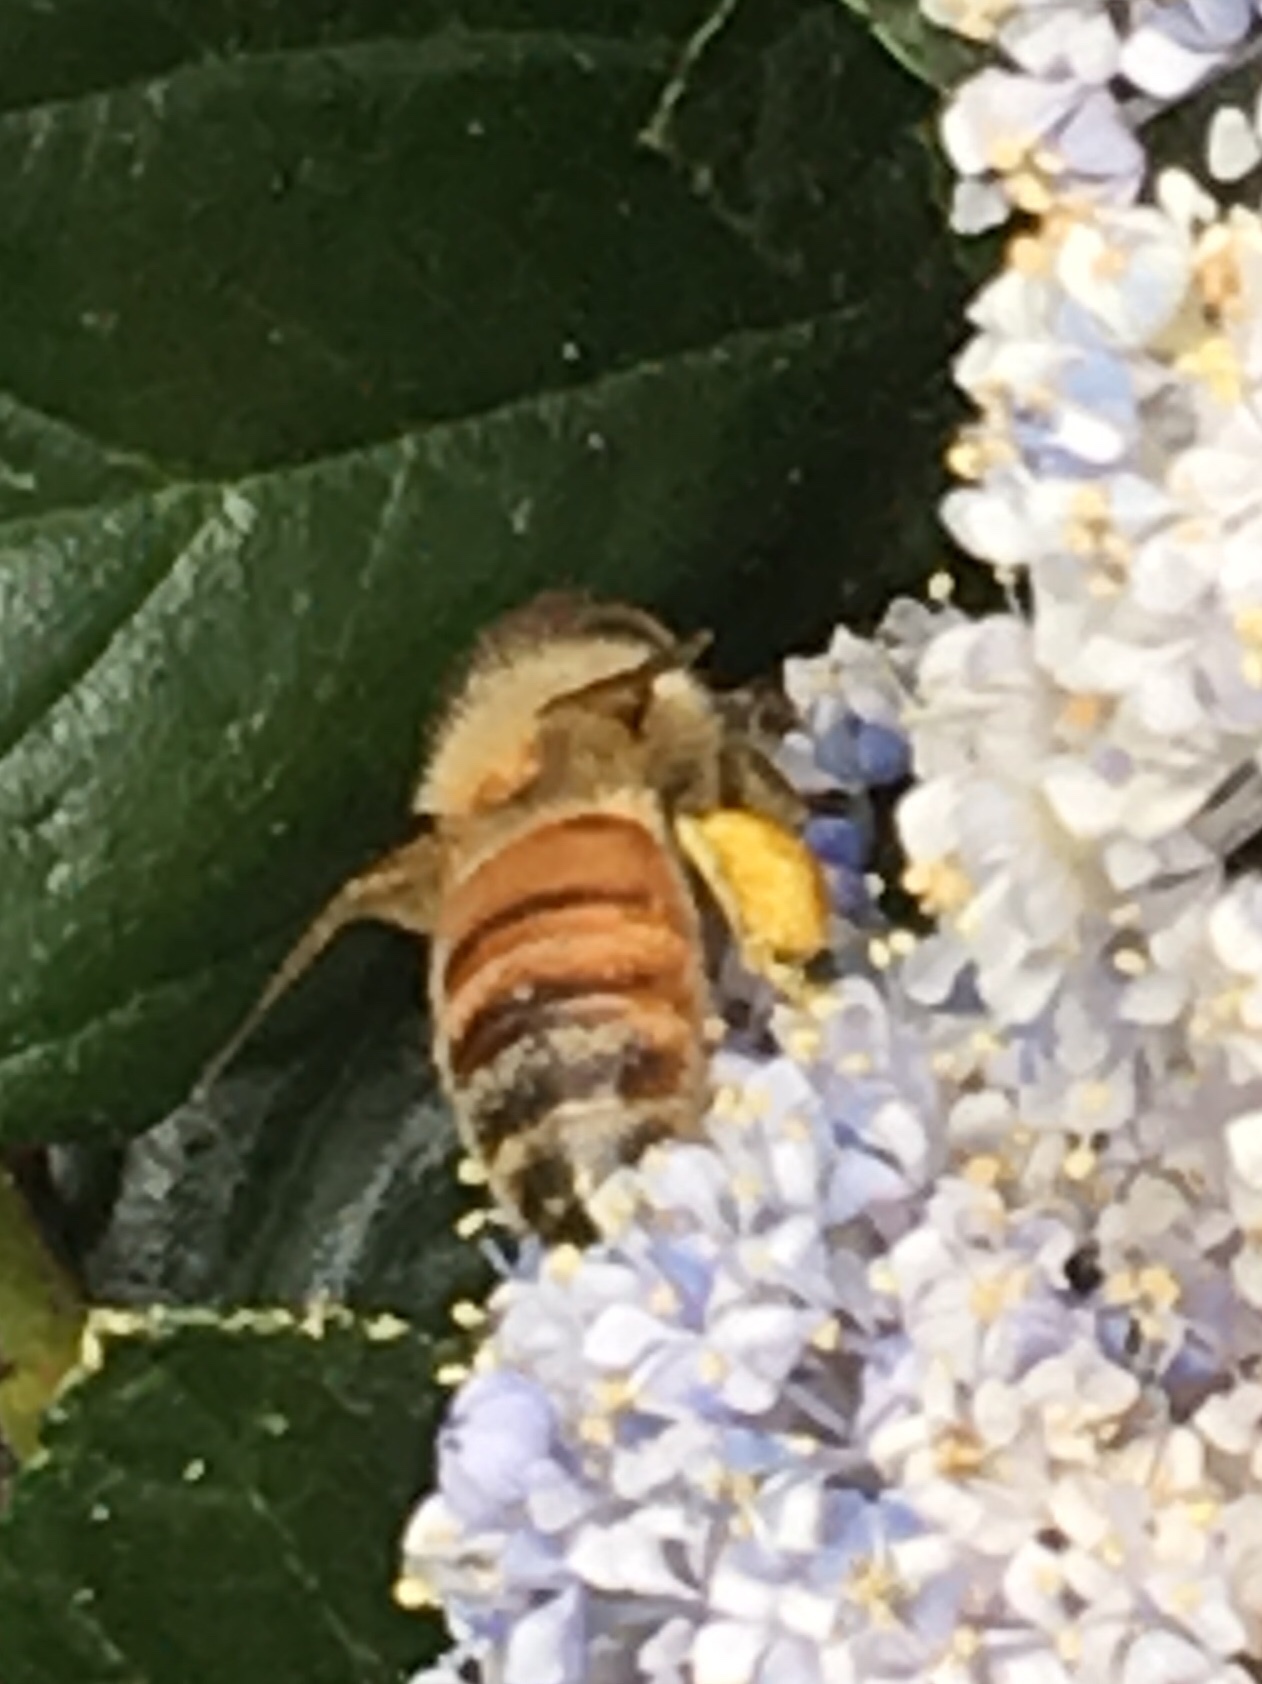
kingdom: Animalia
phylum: Arthropoda
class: Insecta
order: Hymenoptera
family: Apidae
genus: Apis
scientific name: Apis mellifera
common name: Honey bee
